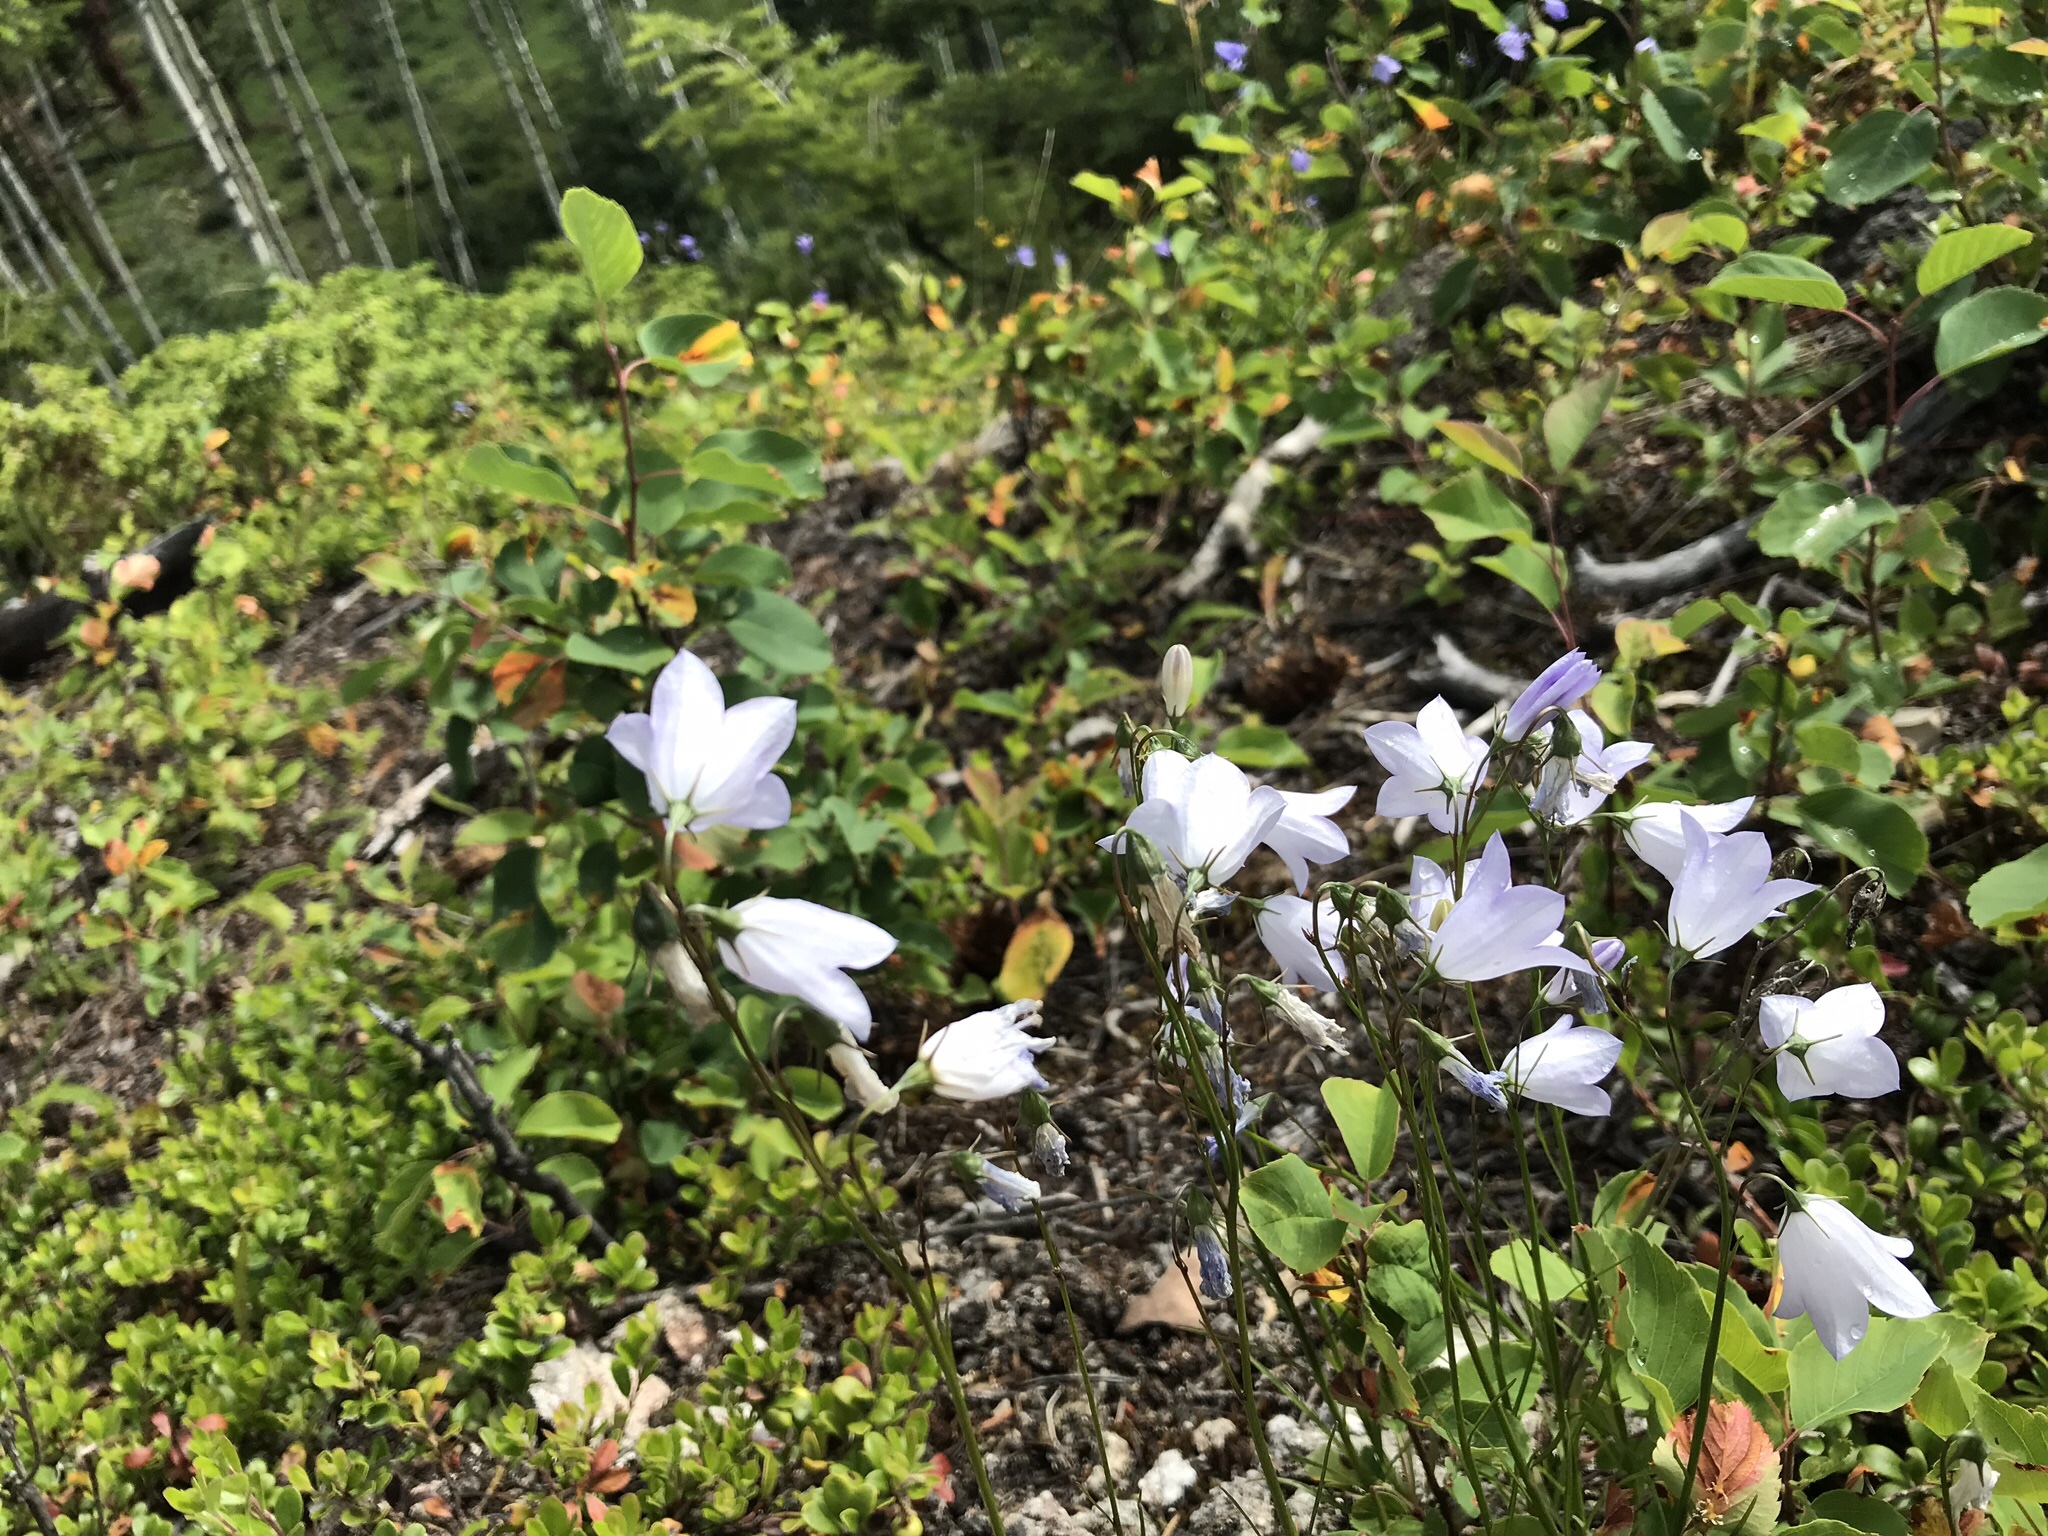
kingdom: Plantae
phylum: Tracheophyta
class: Magnoliopsida
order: Asterales
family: Campanulaceae
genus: Campanula
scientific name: Campanula alaskana
